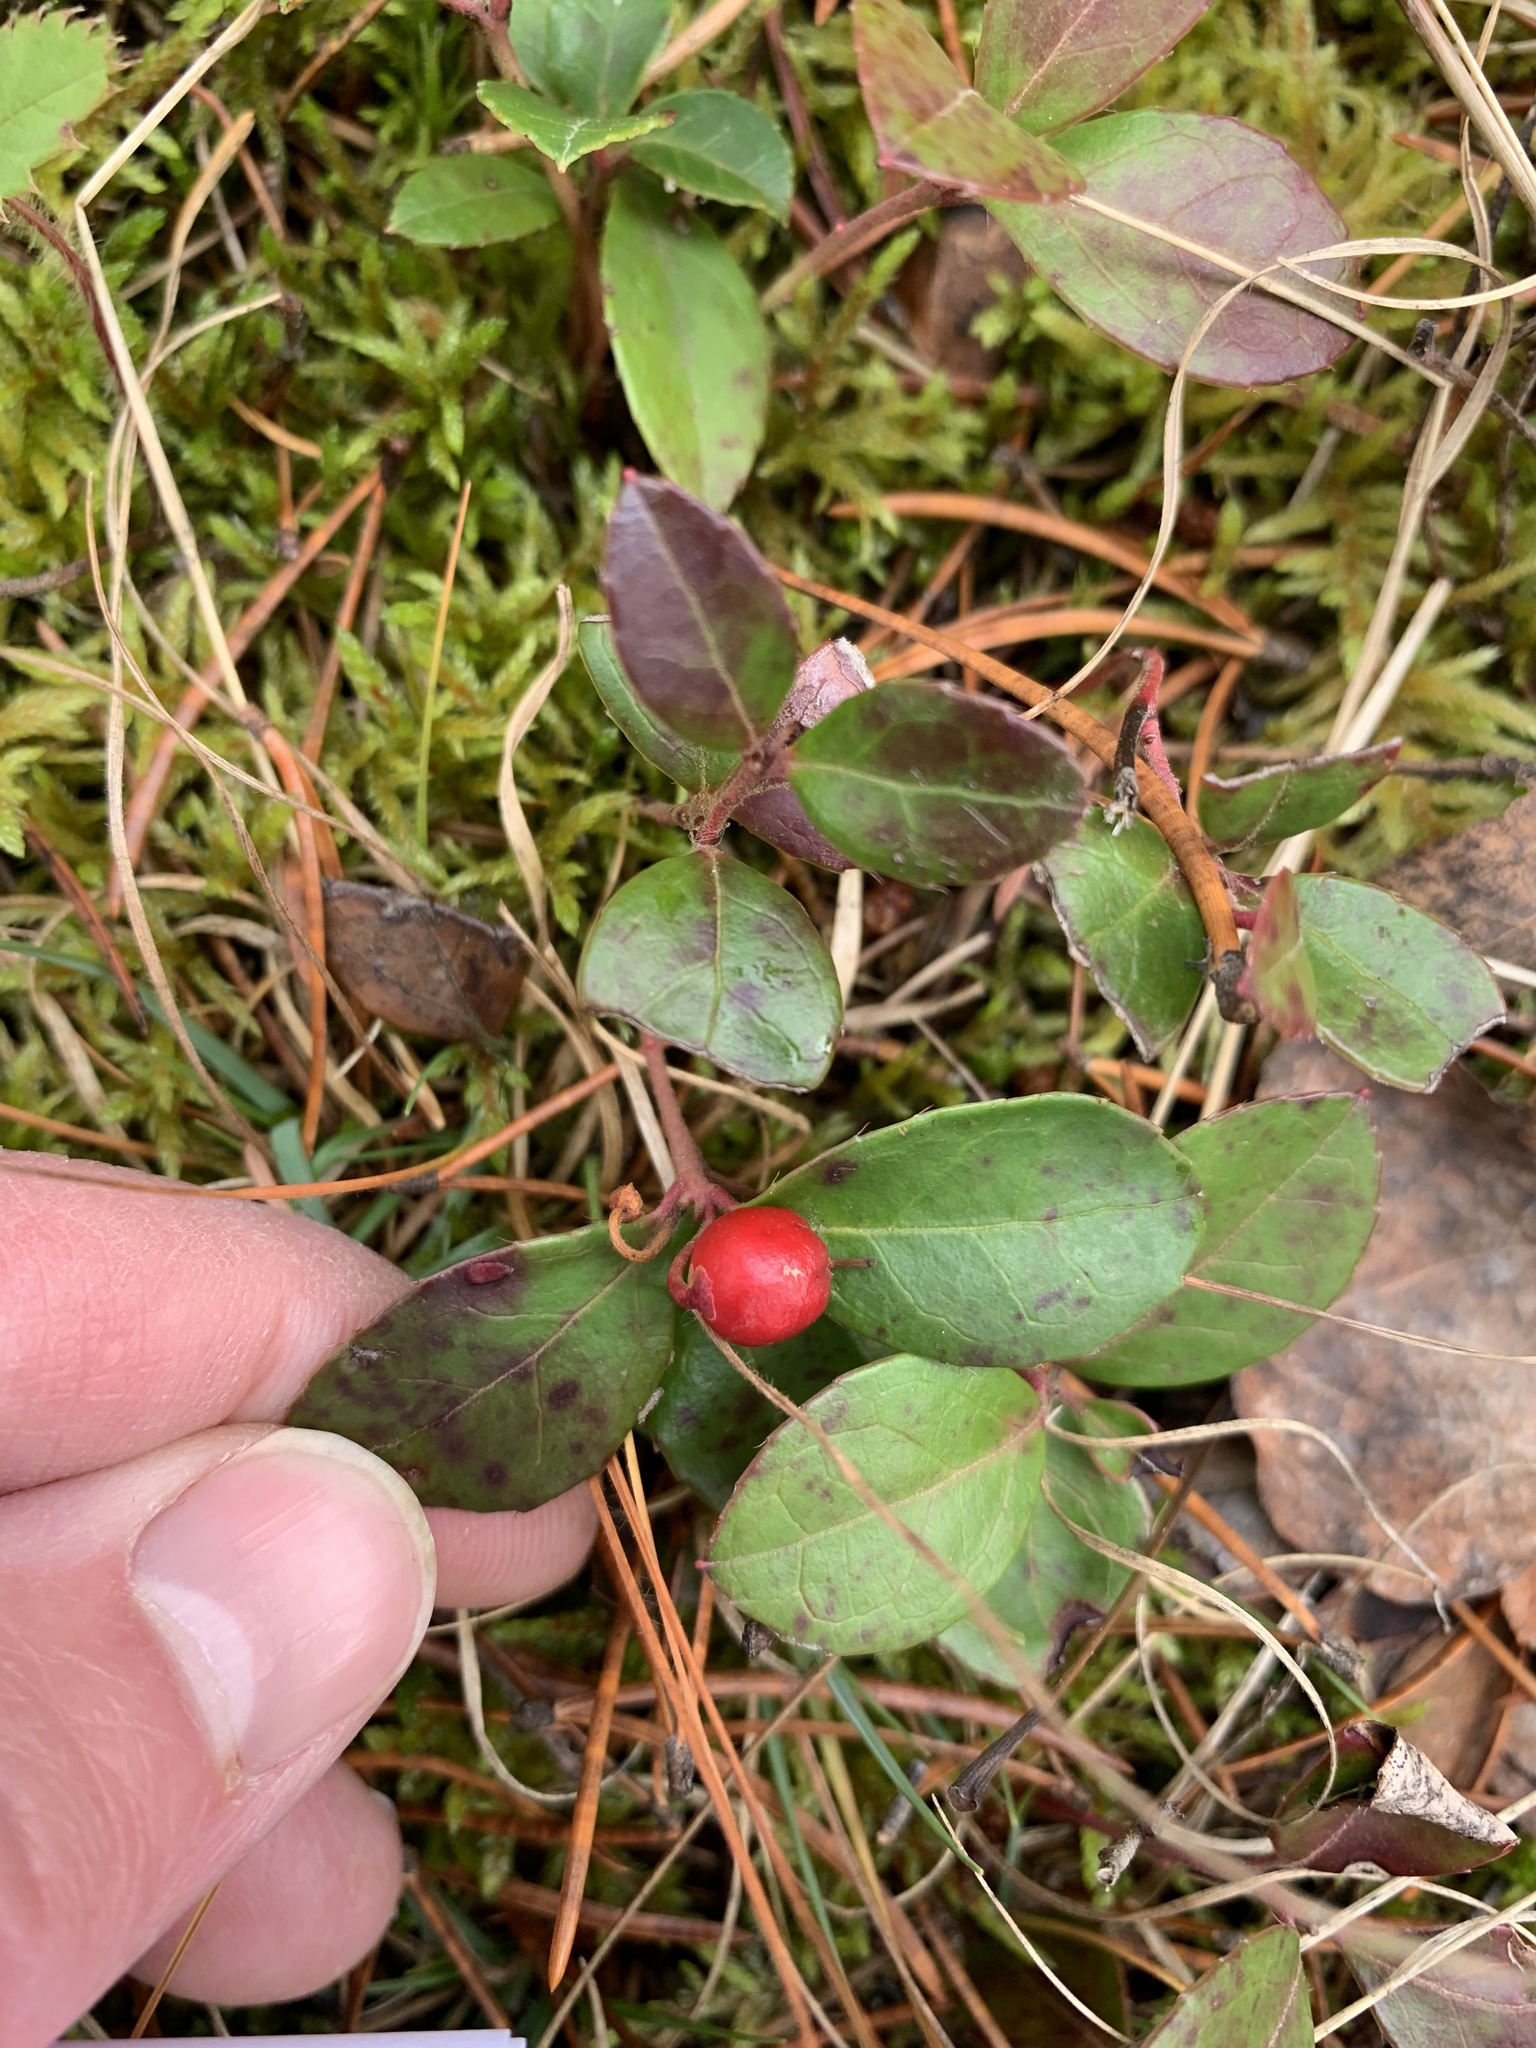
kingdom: Plantae
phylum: Tracheophyta
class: Magnoliopsida
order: Ericales
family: Ericaceae
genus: Gaultheria
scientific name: Gaultheria procumbens
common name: Checkerberry
